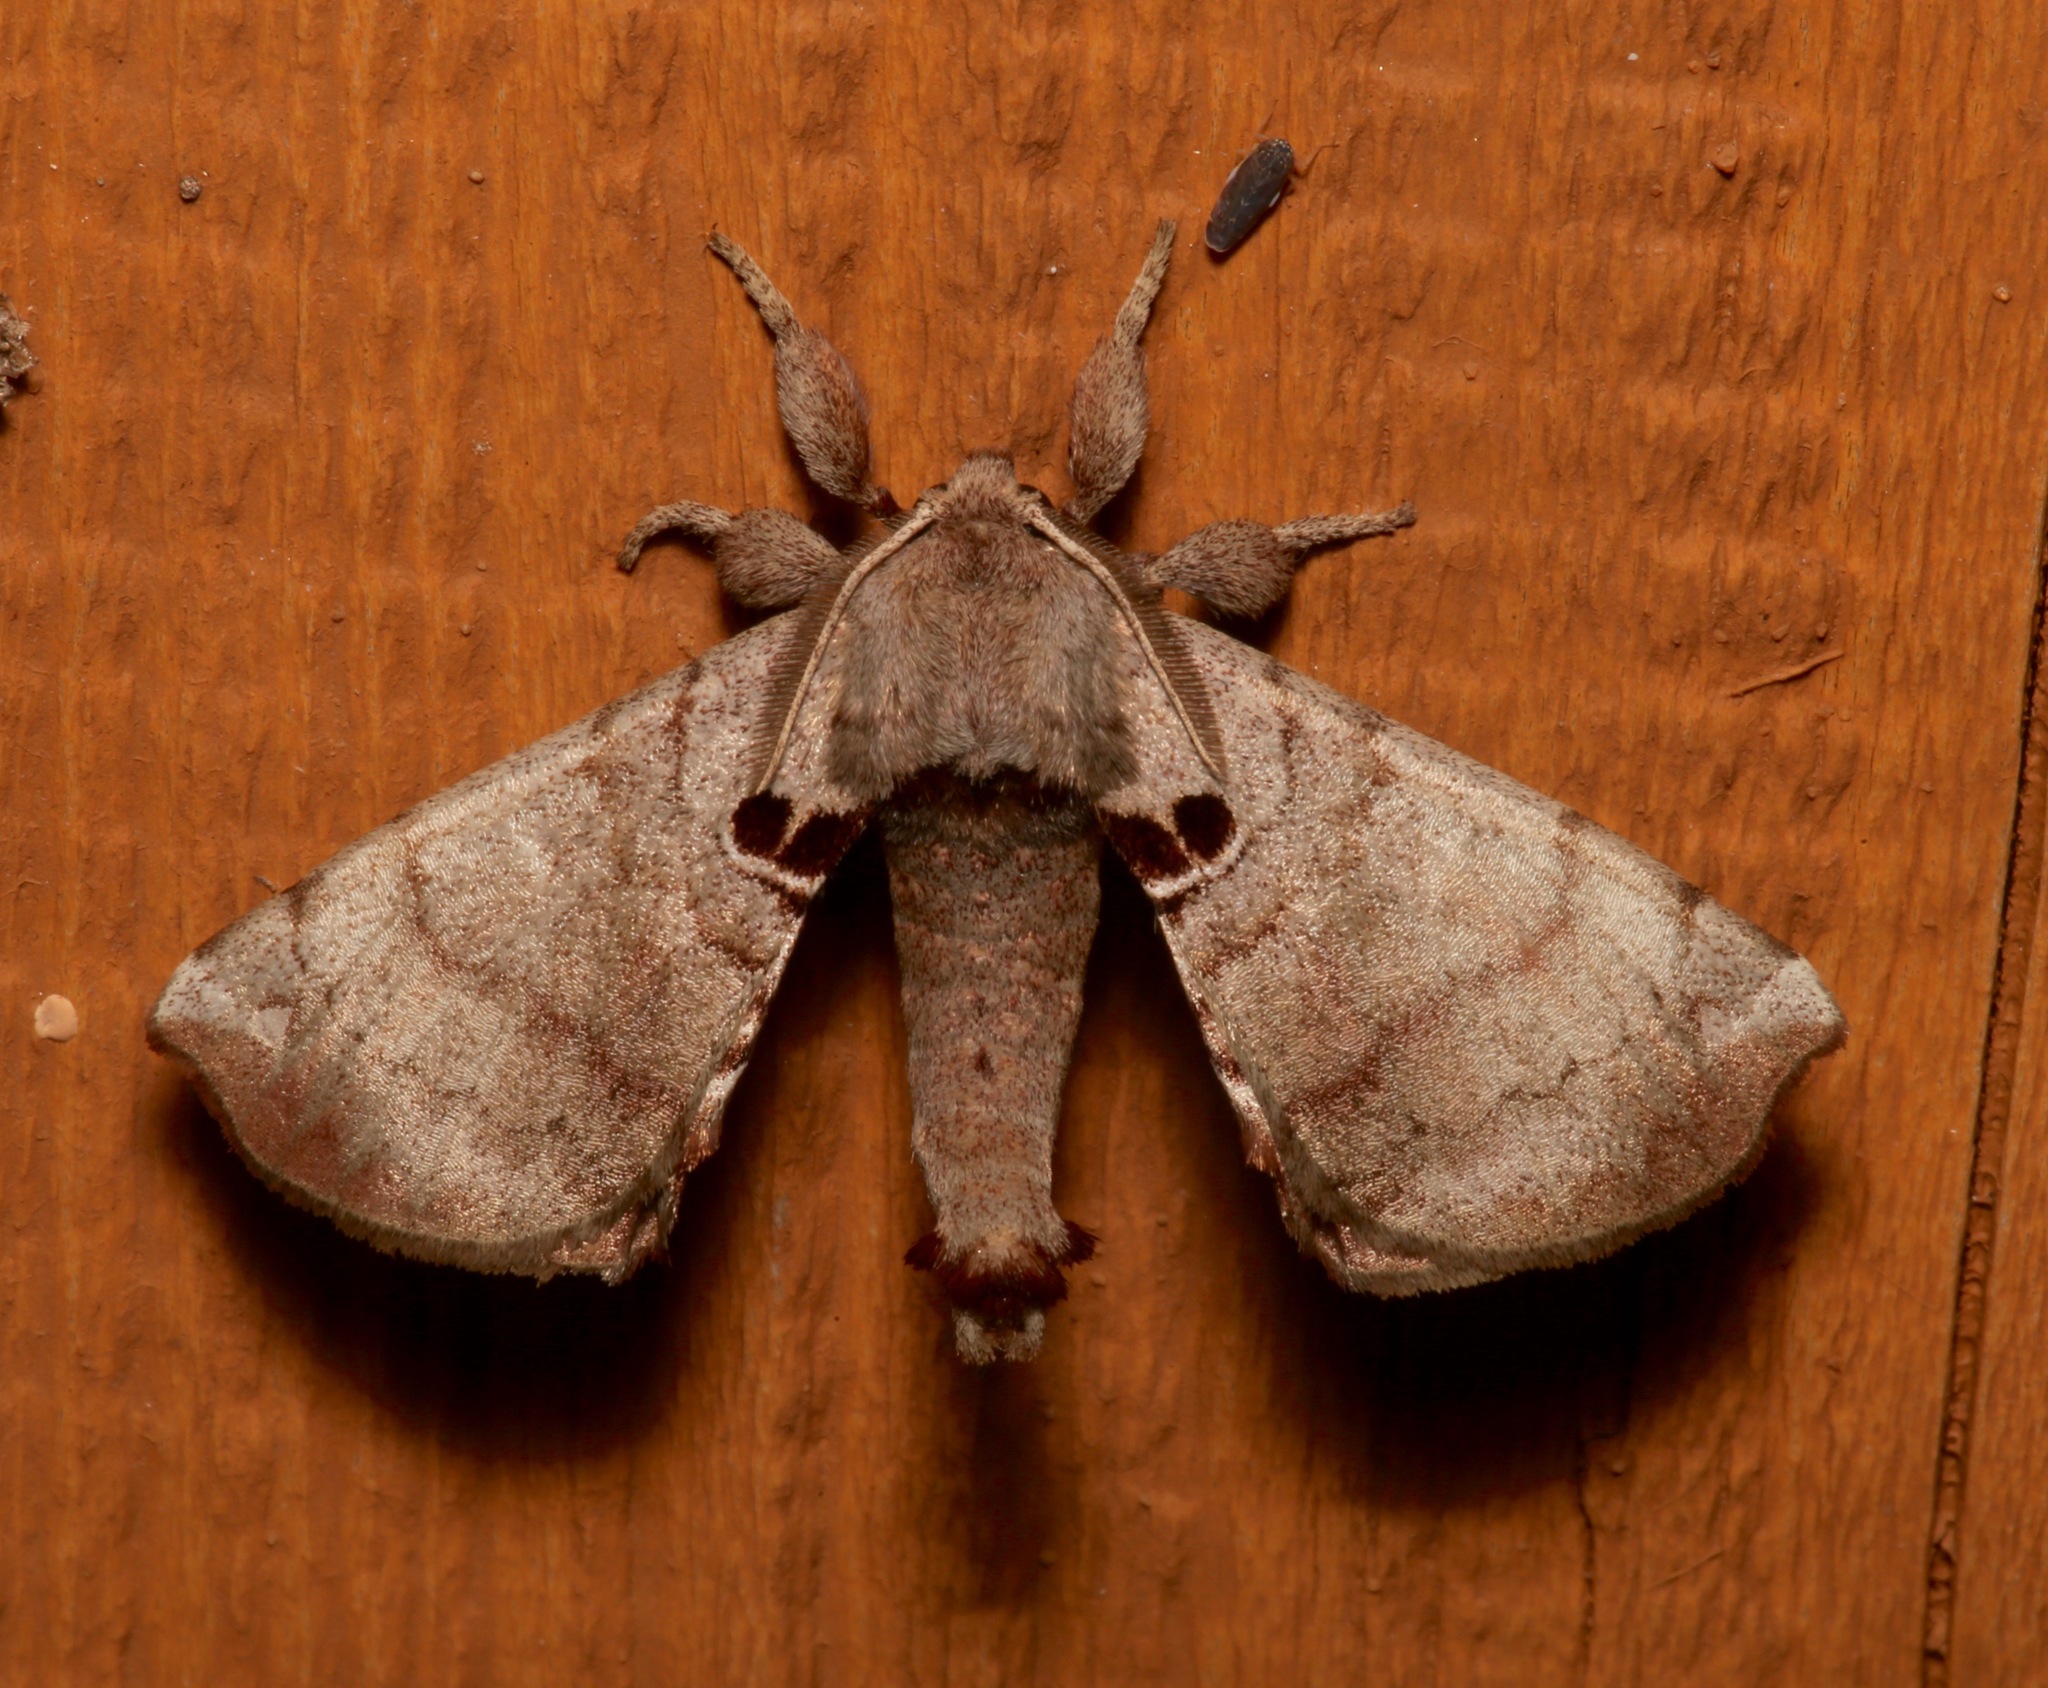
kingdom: Animalia
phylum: Arthropoda
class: Insecta
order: Lepidoptera
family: Apatelodidae
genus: Hygrochroa
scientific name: Hygrochroa Apatelodes torrefacta
